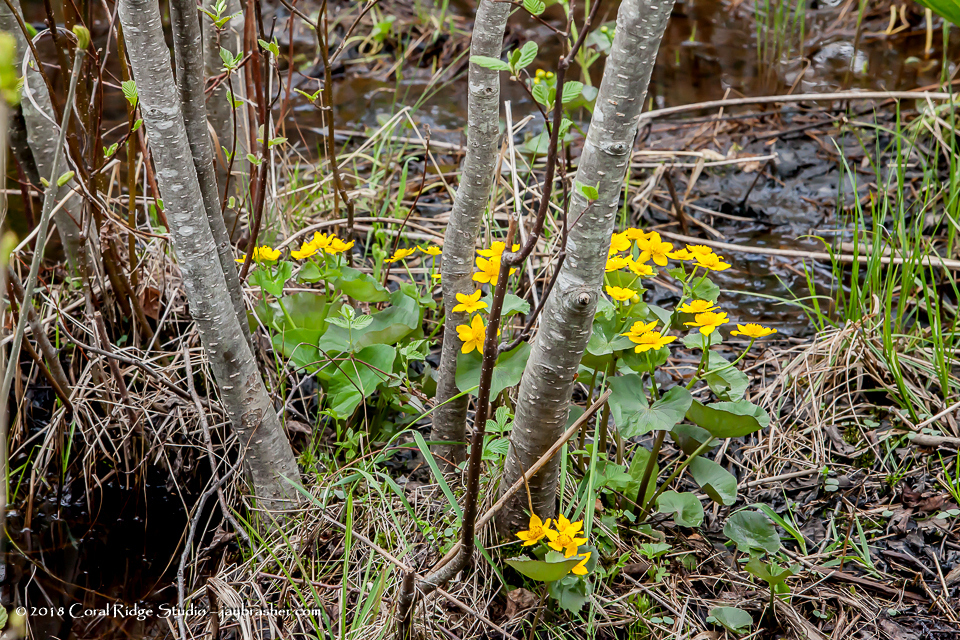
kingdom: Plantae
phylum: Tracheophyta
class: Magnoliopsida
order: Ranunculales
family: Ranunculaceae
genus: Caltha
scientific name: Caltha palustris
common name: Marsh marigold
